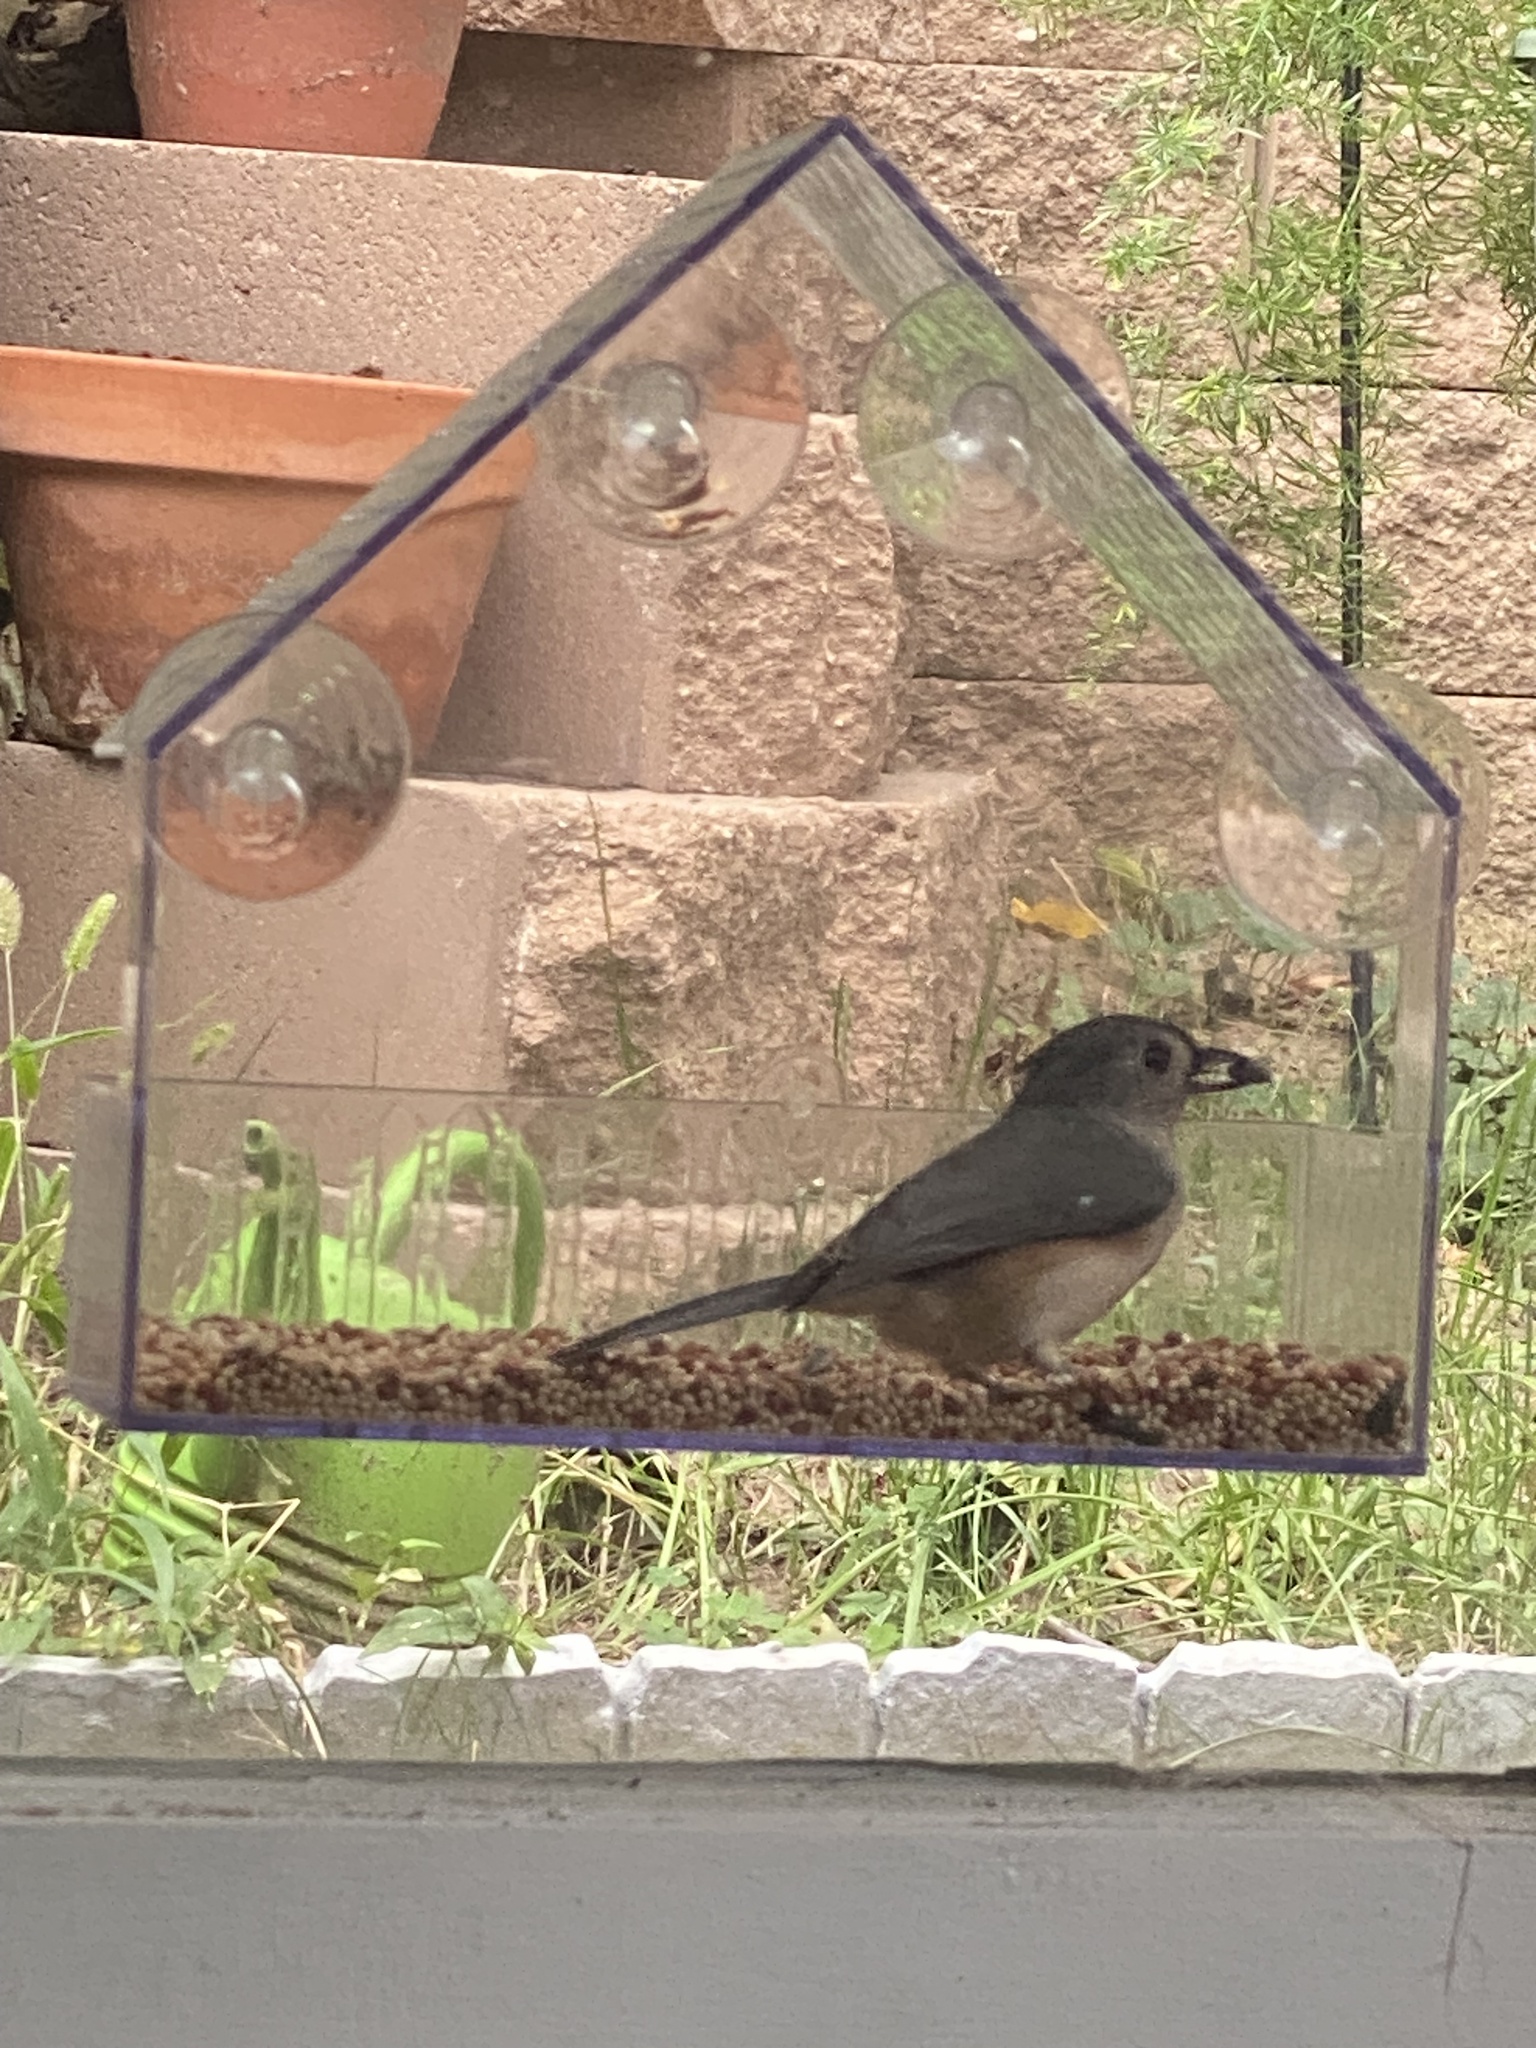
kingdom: Animalia
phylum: Chordata
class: Aves
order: Passeriformes
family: Paridae
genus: Baeolophus
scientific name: Baeolophus bicolor
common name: Tufted titmouse
